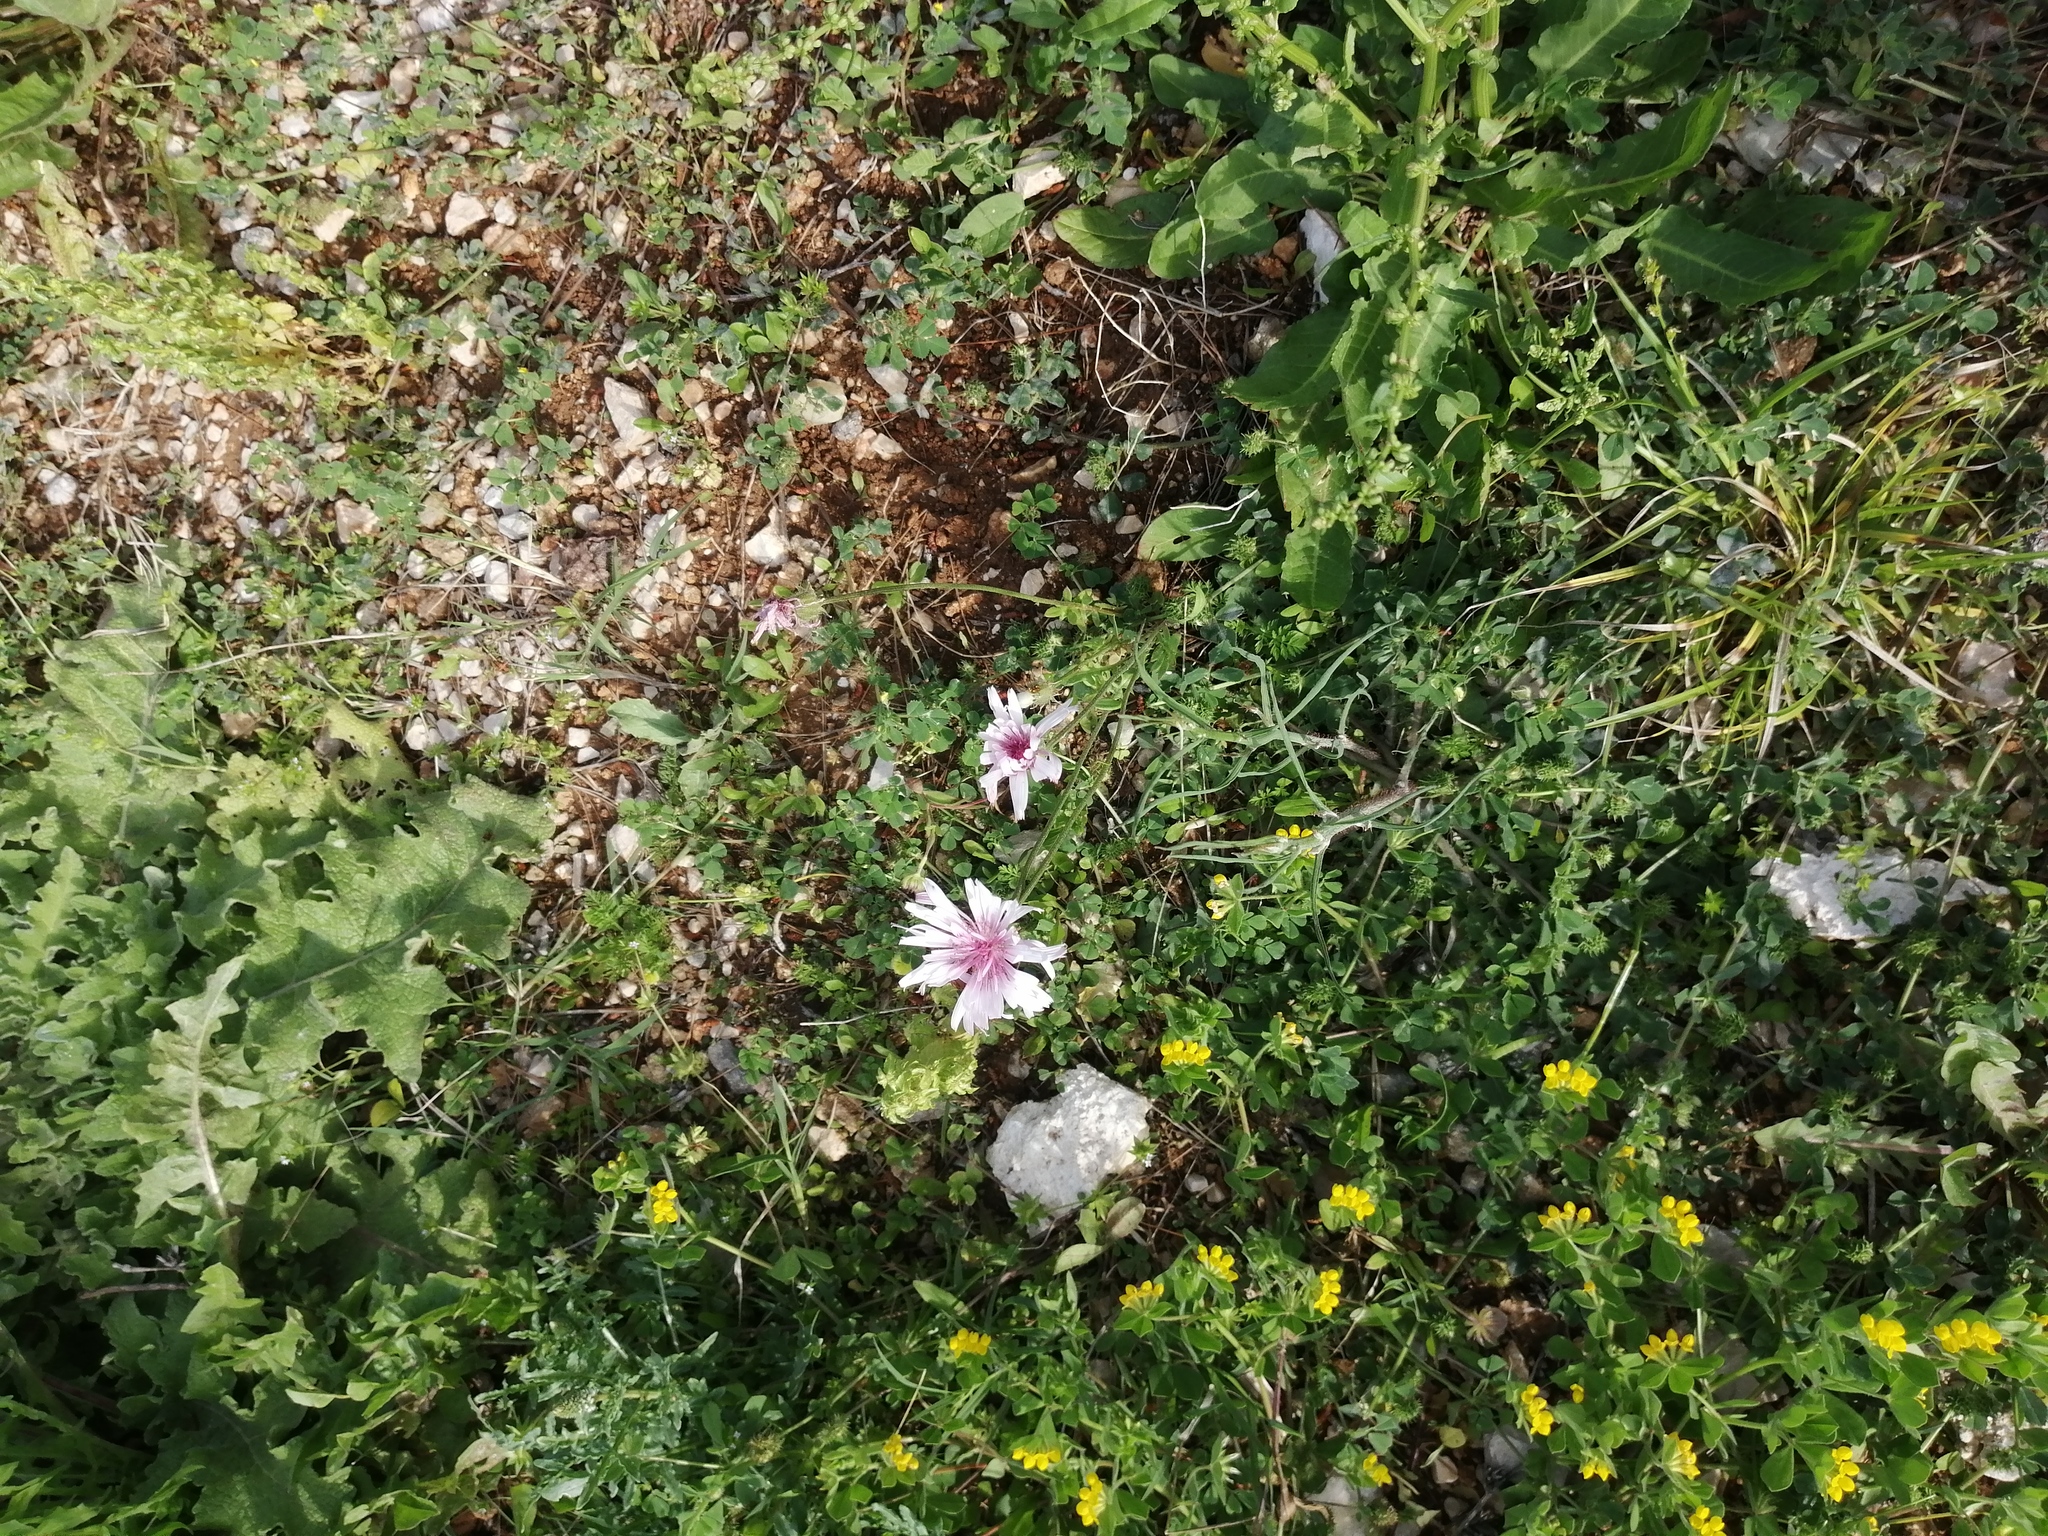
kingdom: Plantae
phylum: Tracheophyta
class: Magnoliopsida
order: Asterales
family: Asteraceae
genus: Crepis
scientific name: Crepis rubra
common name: Pink hawk's-beard
